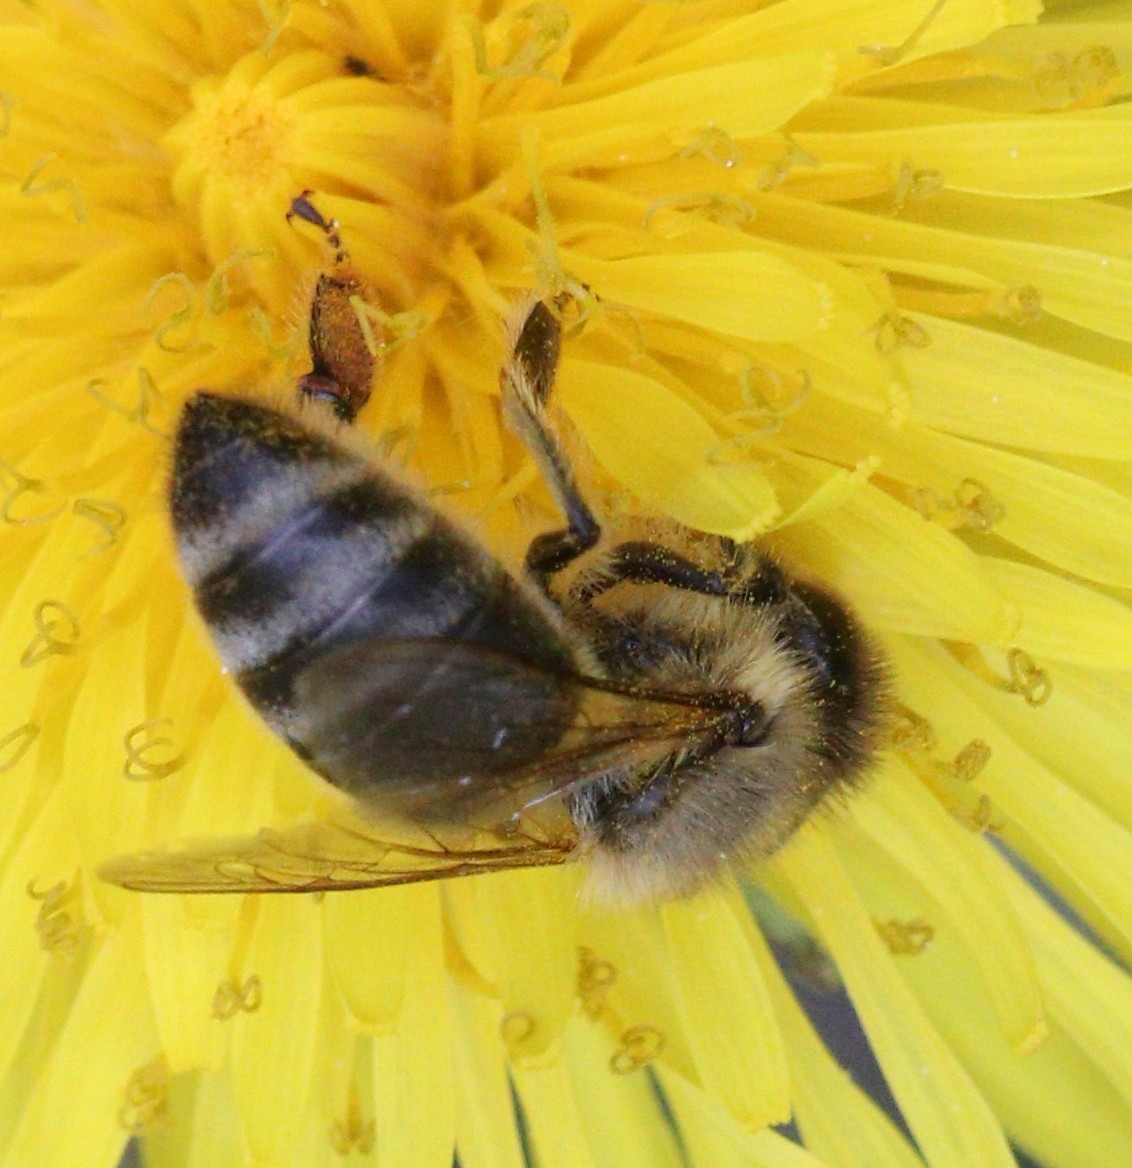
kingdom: Animalia
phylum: Arthropoda
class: Insecta
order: Hymenoptera
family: Apidae
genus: Apis
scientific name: Apis mellifera
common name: Honey bee
